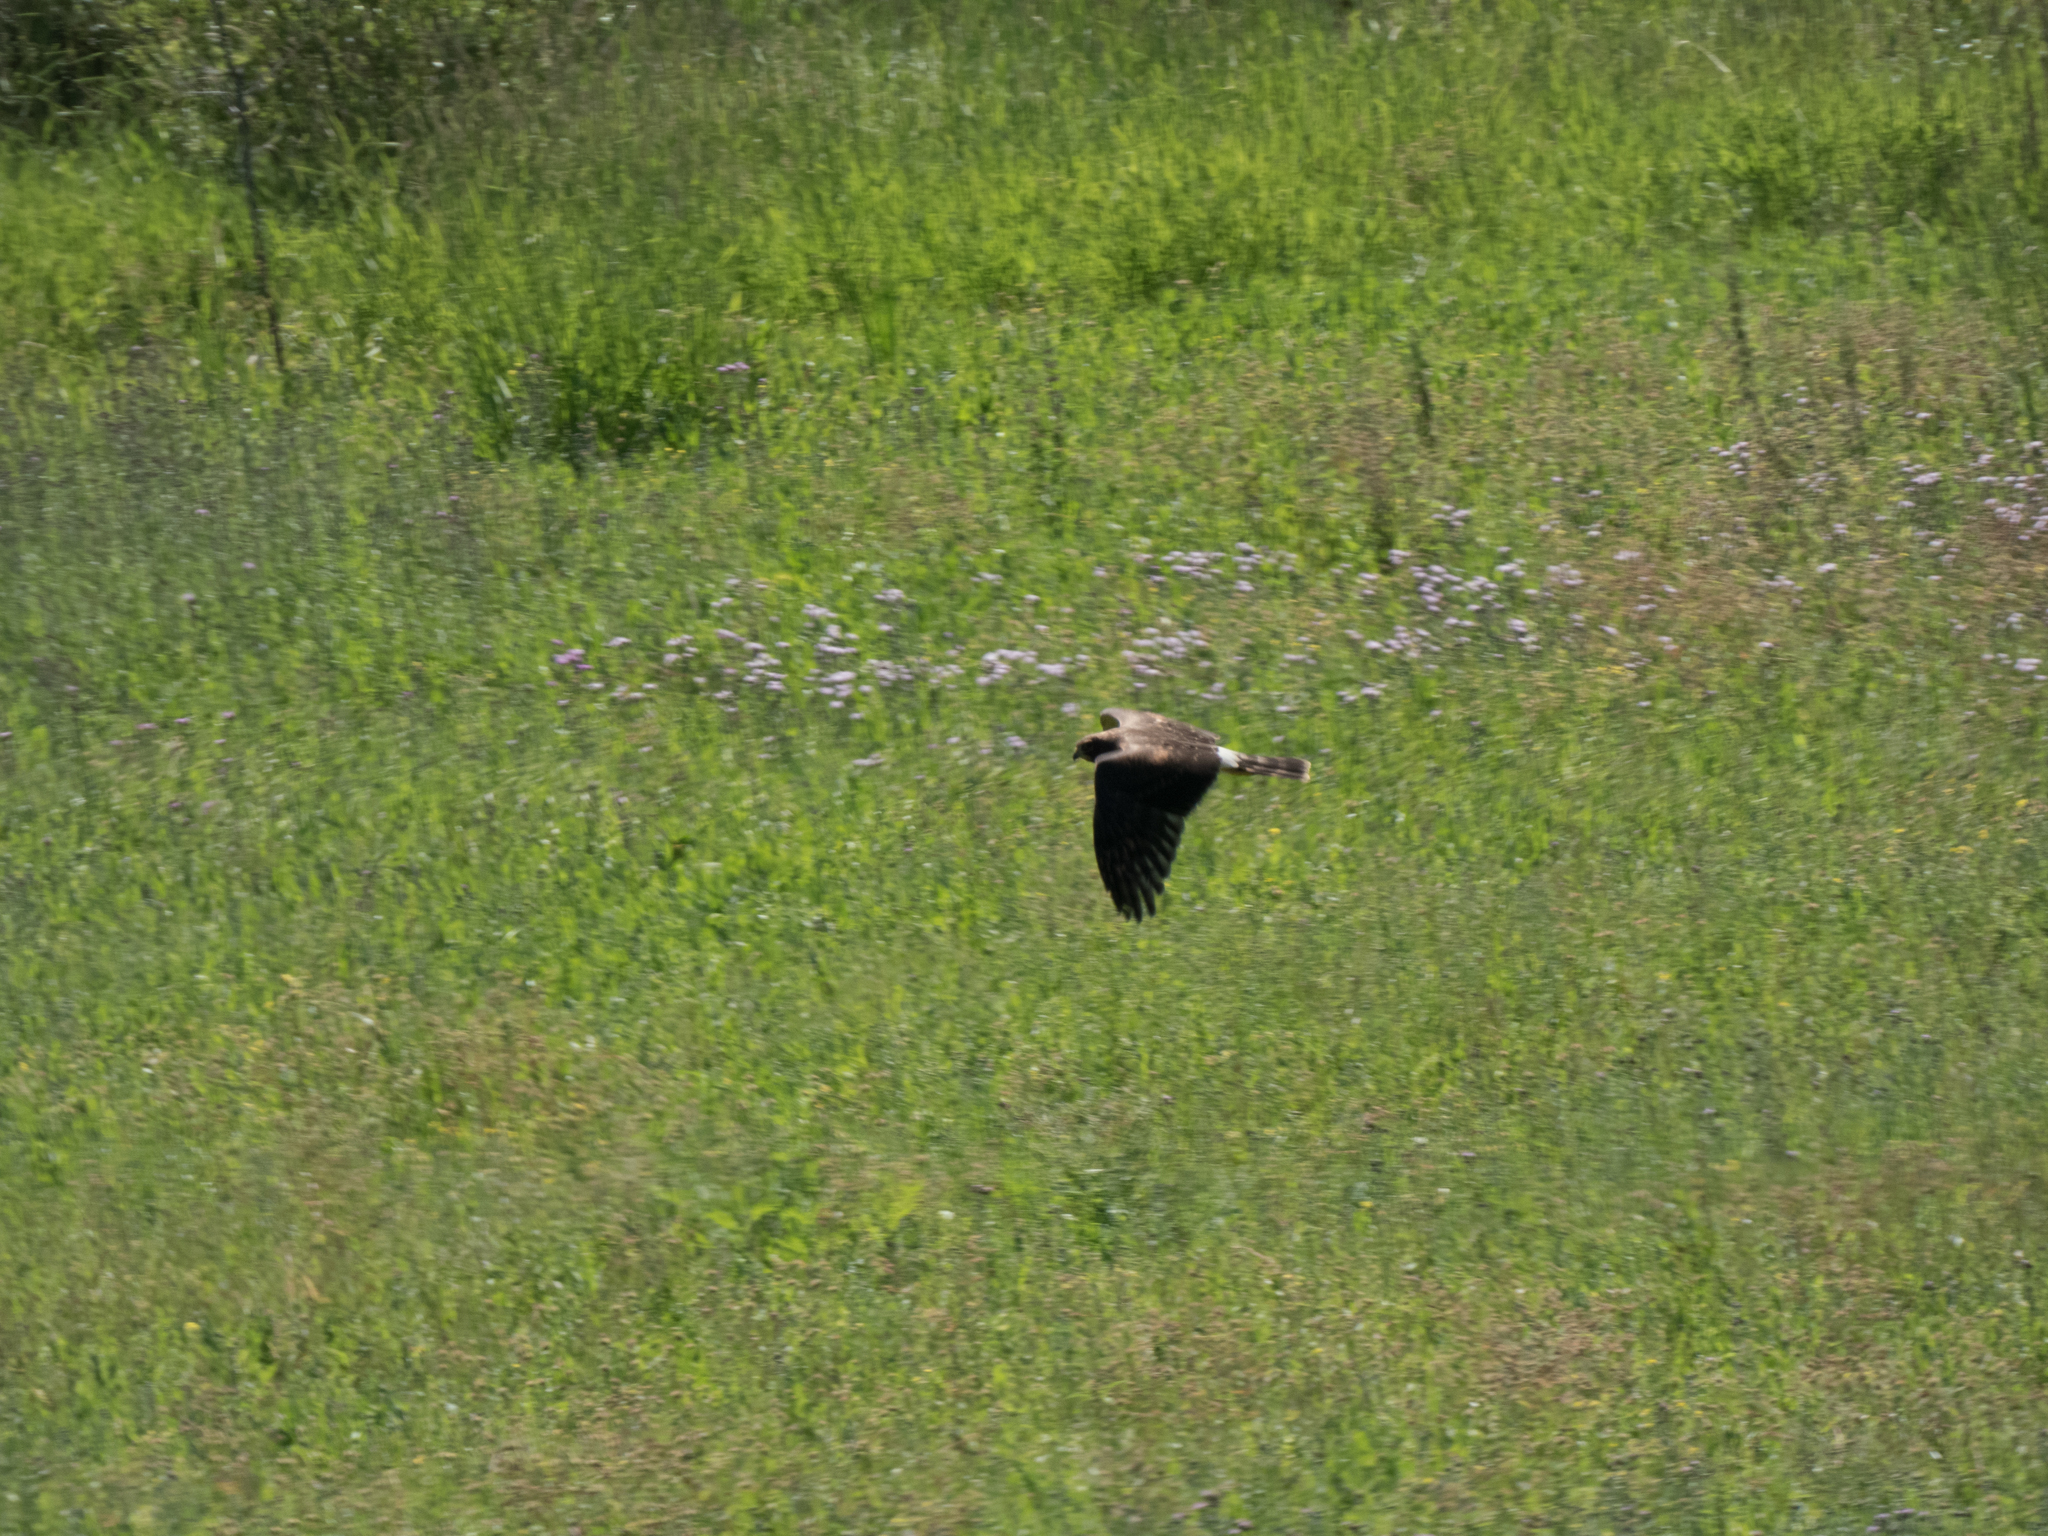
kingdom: Animalia
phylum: Chordata
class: Aves
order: Accipitriformes
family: Accipitridae
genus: Circus
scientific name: Circus cyaneus
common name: Hen harrier
